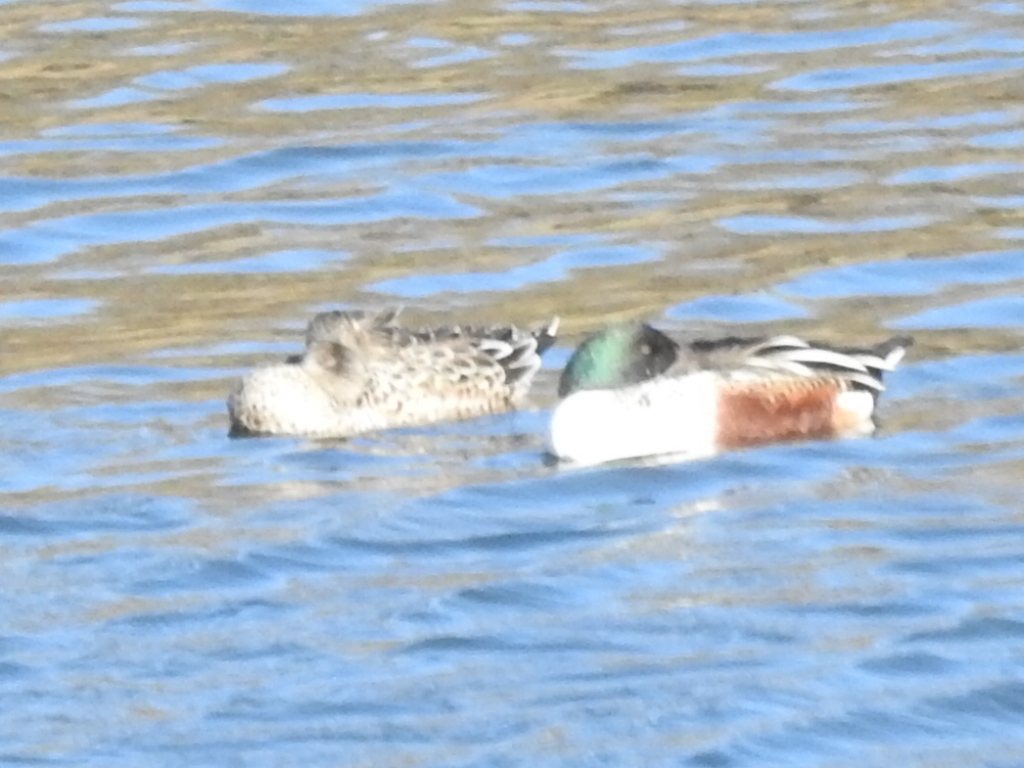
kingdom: Animalia
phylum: Chordata
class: Aves
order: Anseriformes
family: Anatidae
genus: Spatula
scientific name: Spatula clypeata
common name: Northern shoveler
